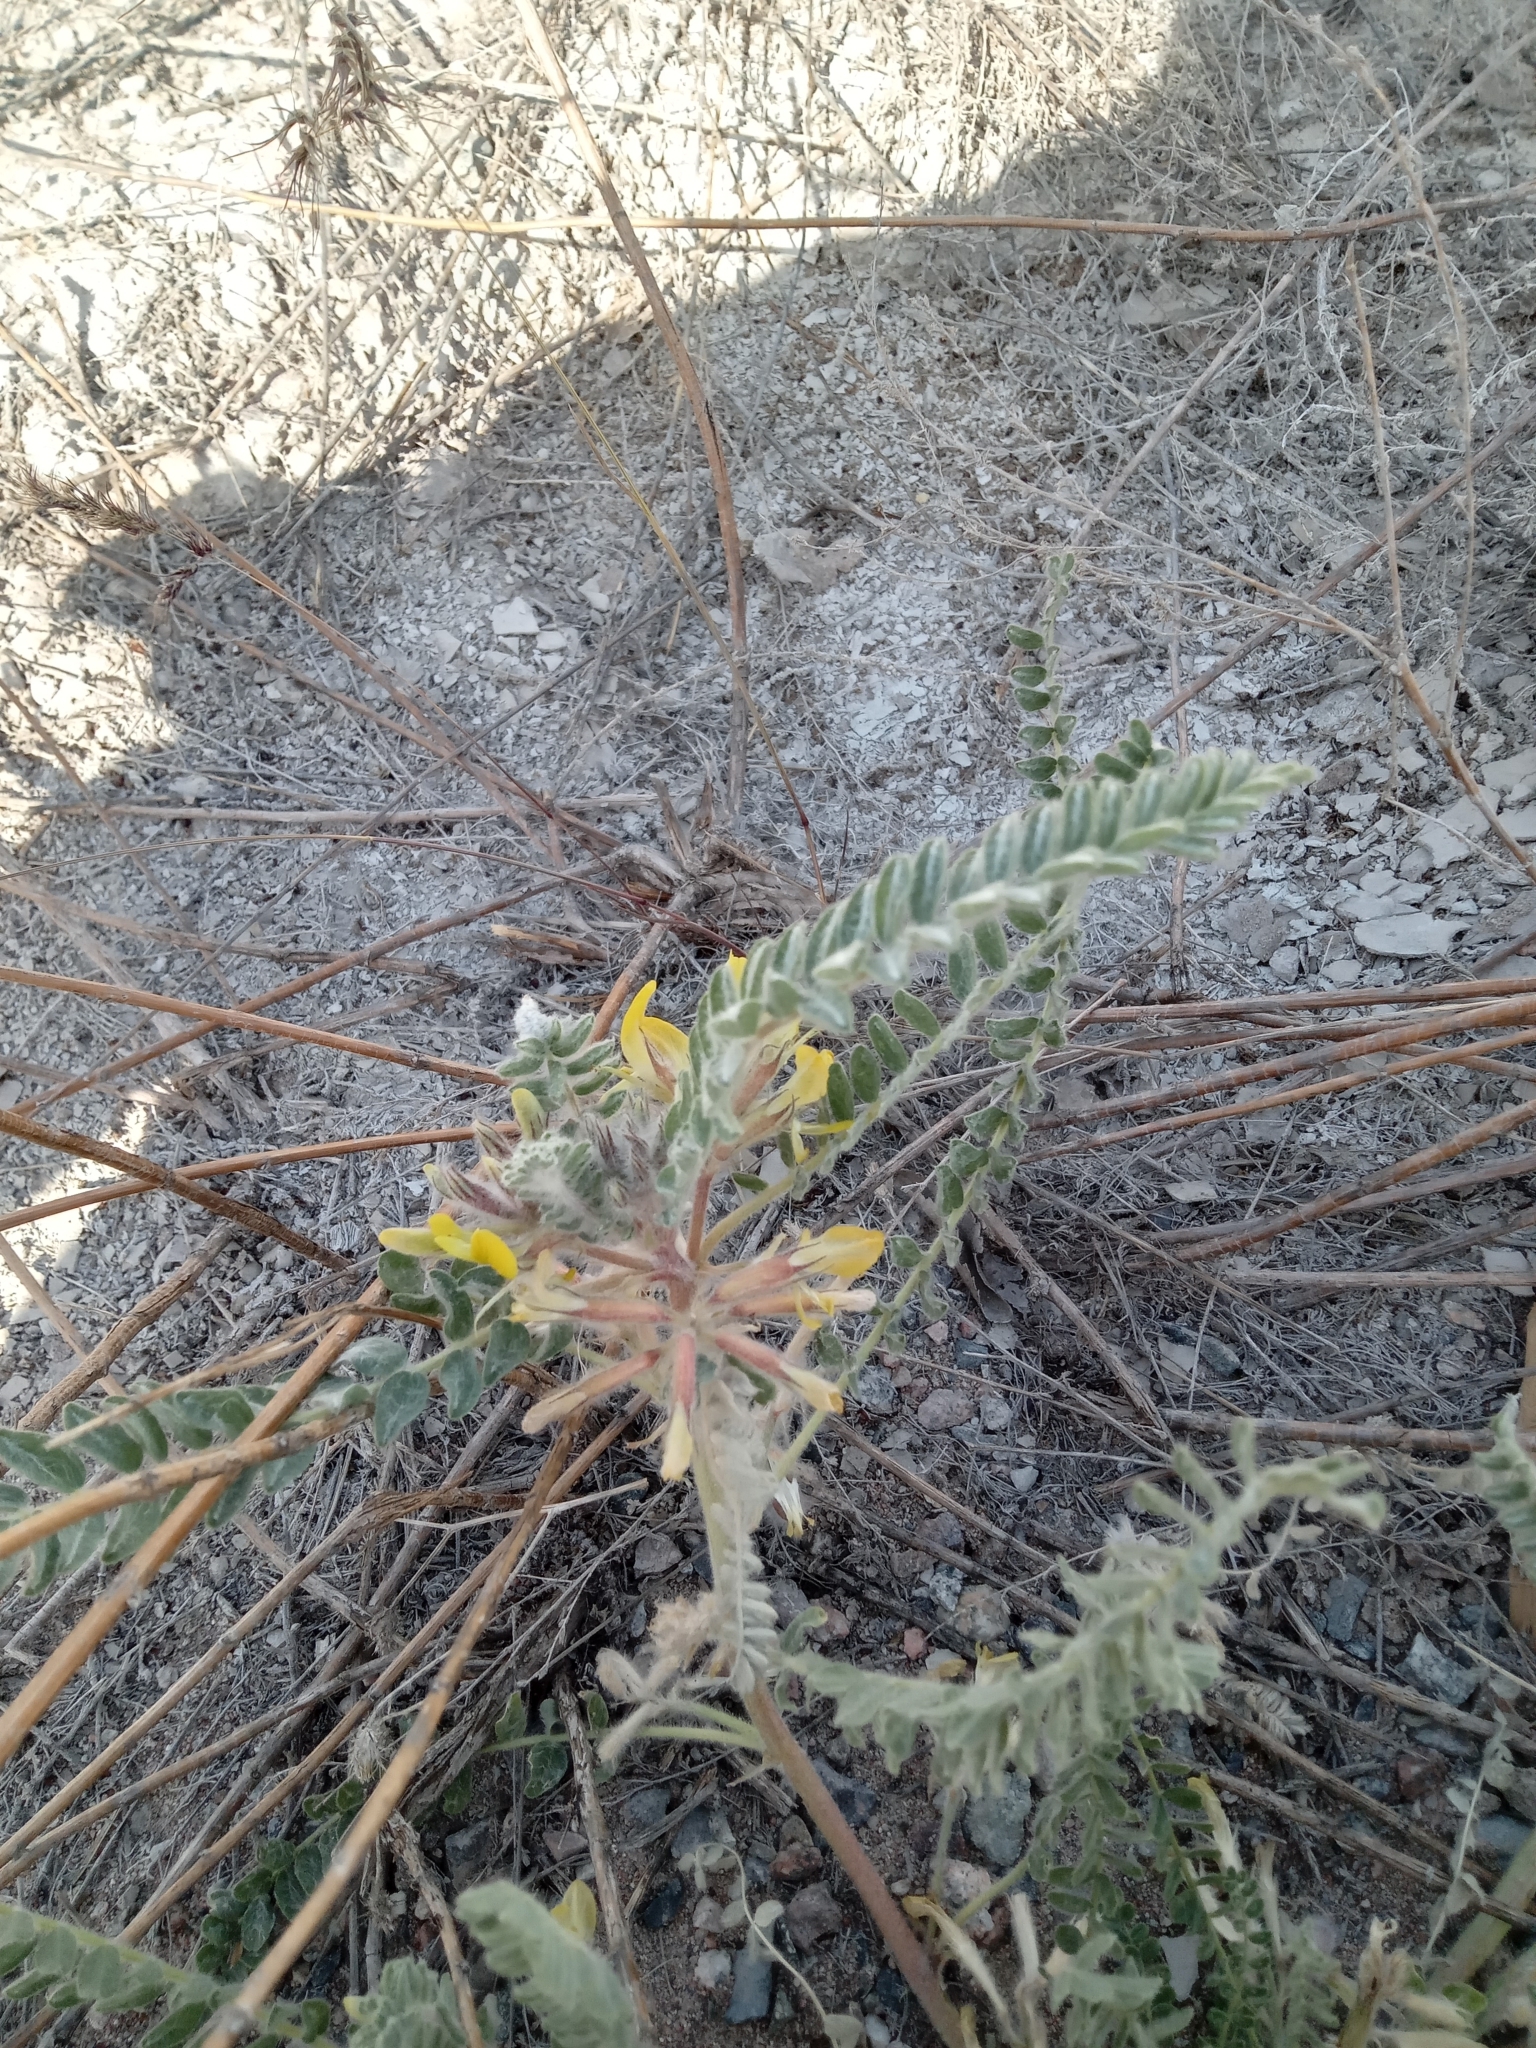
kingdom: Plantae
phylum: Tracheophyta
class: Magnoliopsida
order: Fabales
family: Fabaceae
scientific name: Fabaceae
